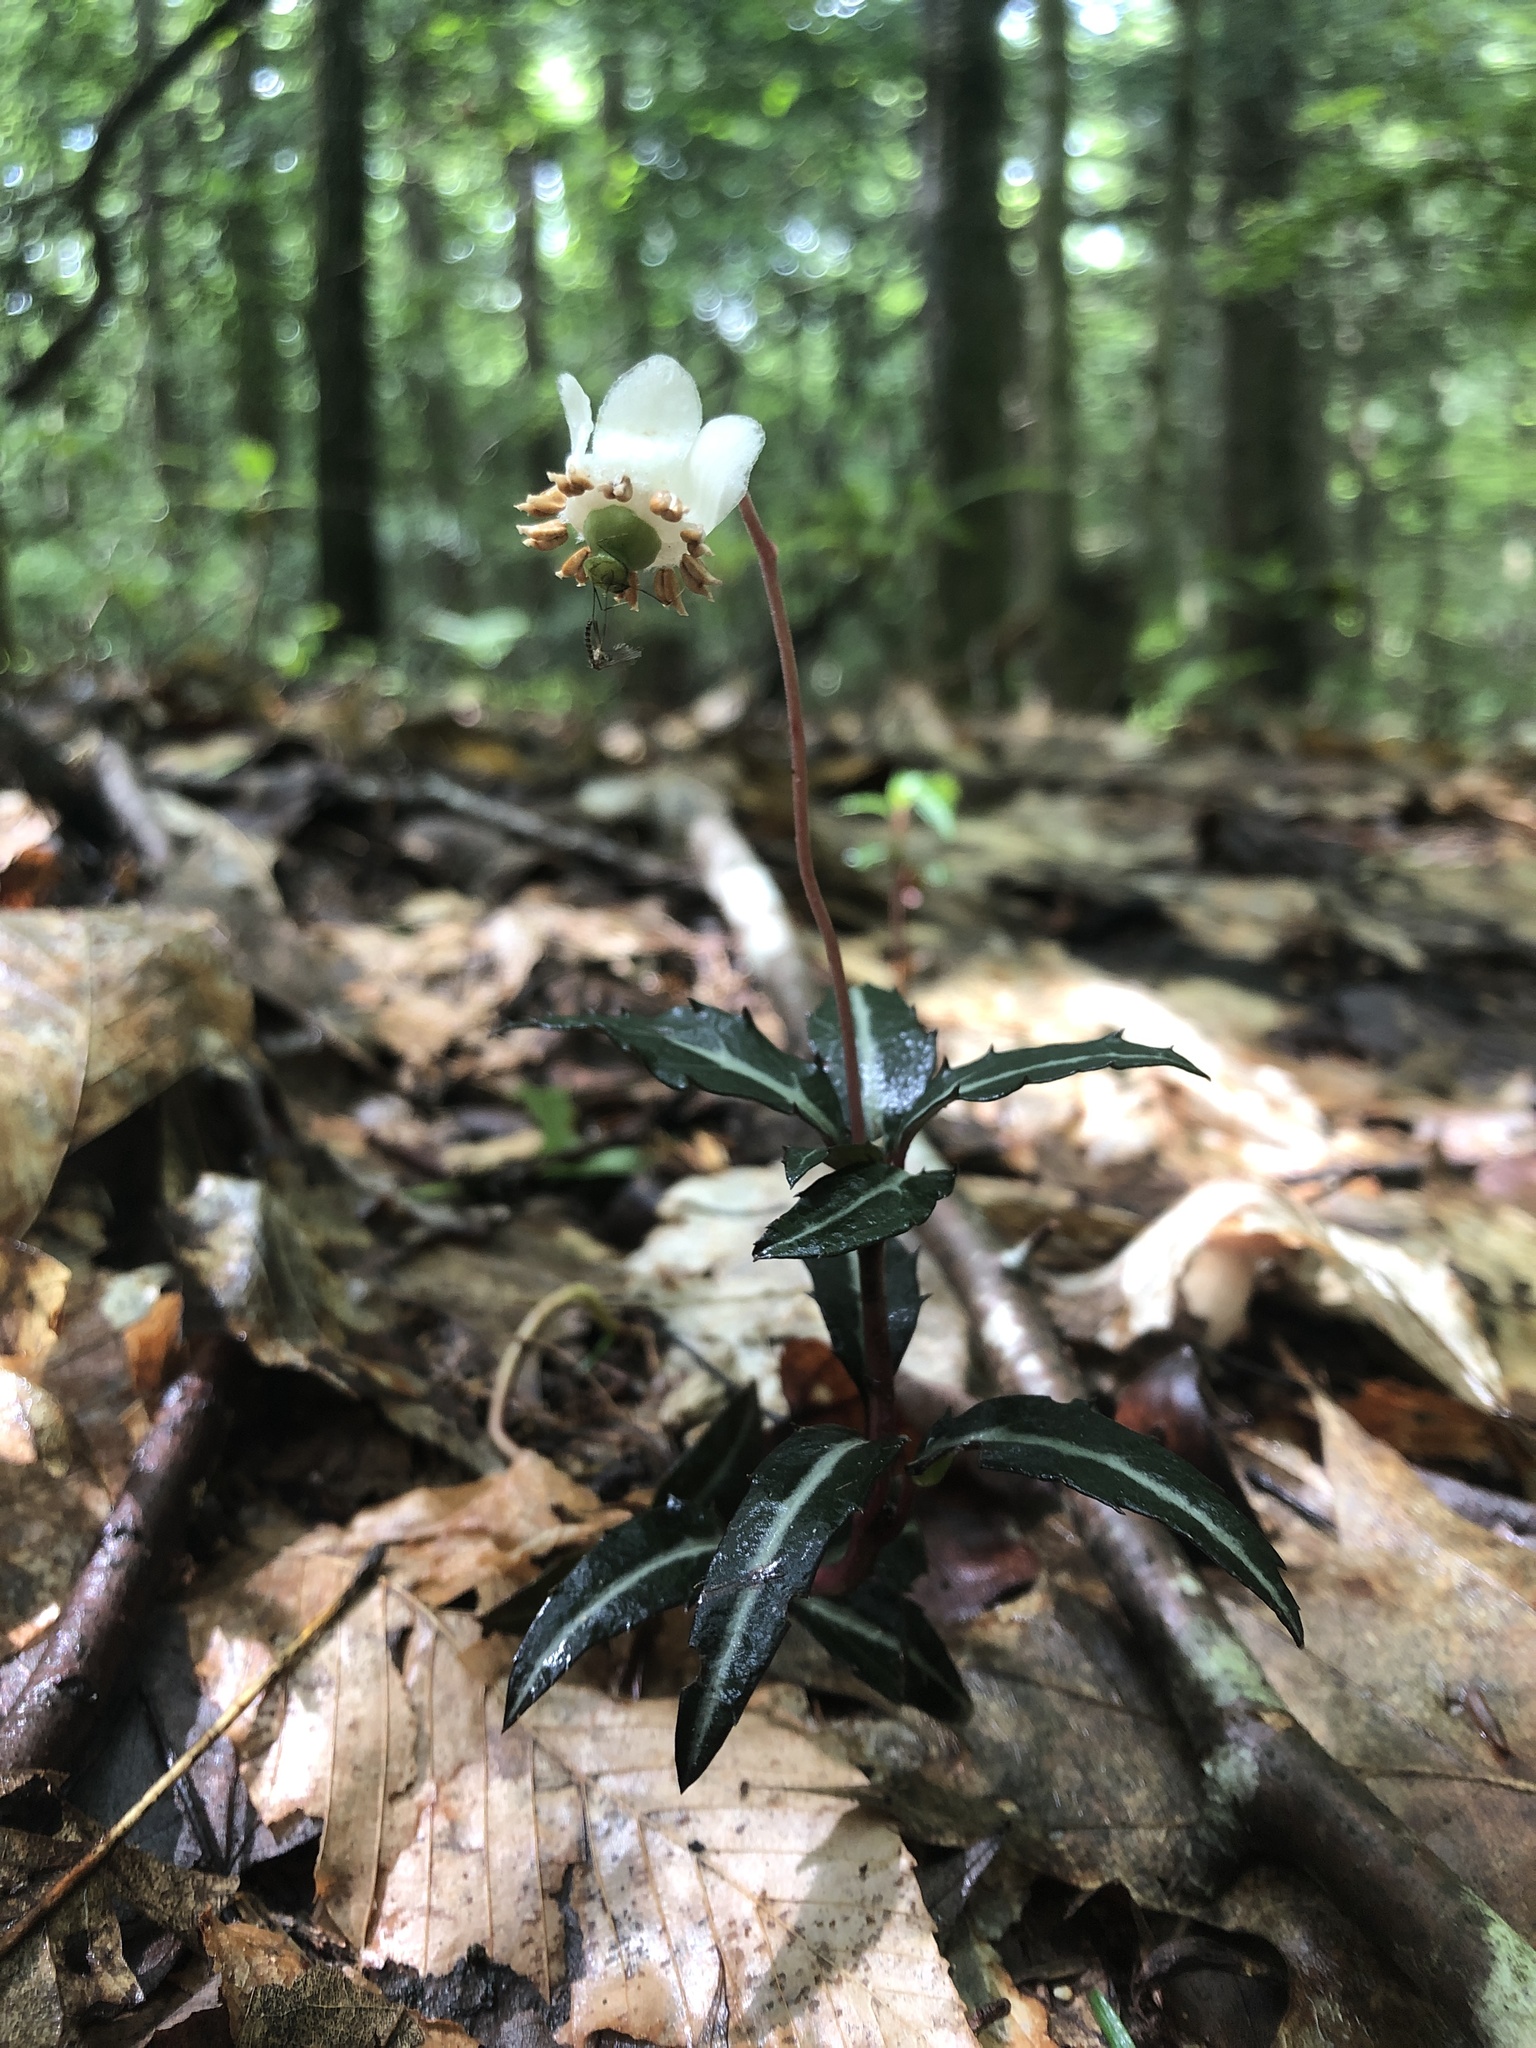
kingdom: Plantae
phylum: Tracheophyta
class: Magnoliopsida
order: Ericales
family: Ericaceae
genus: Chimaphila
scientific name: Chimaphila maculata
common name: Spotted pipsissewa
